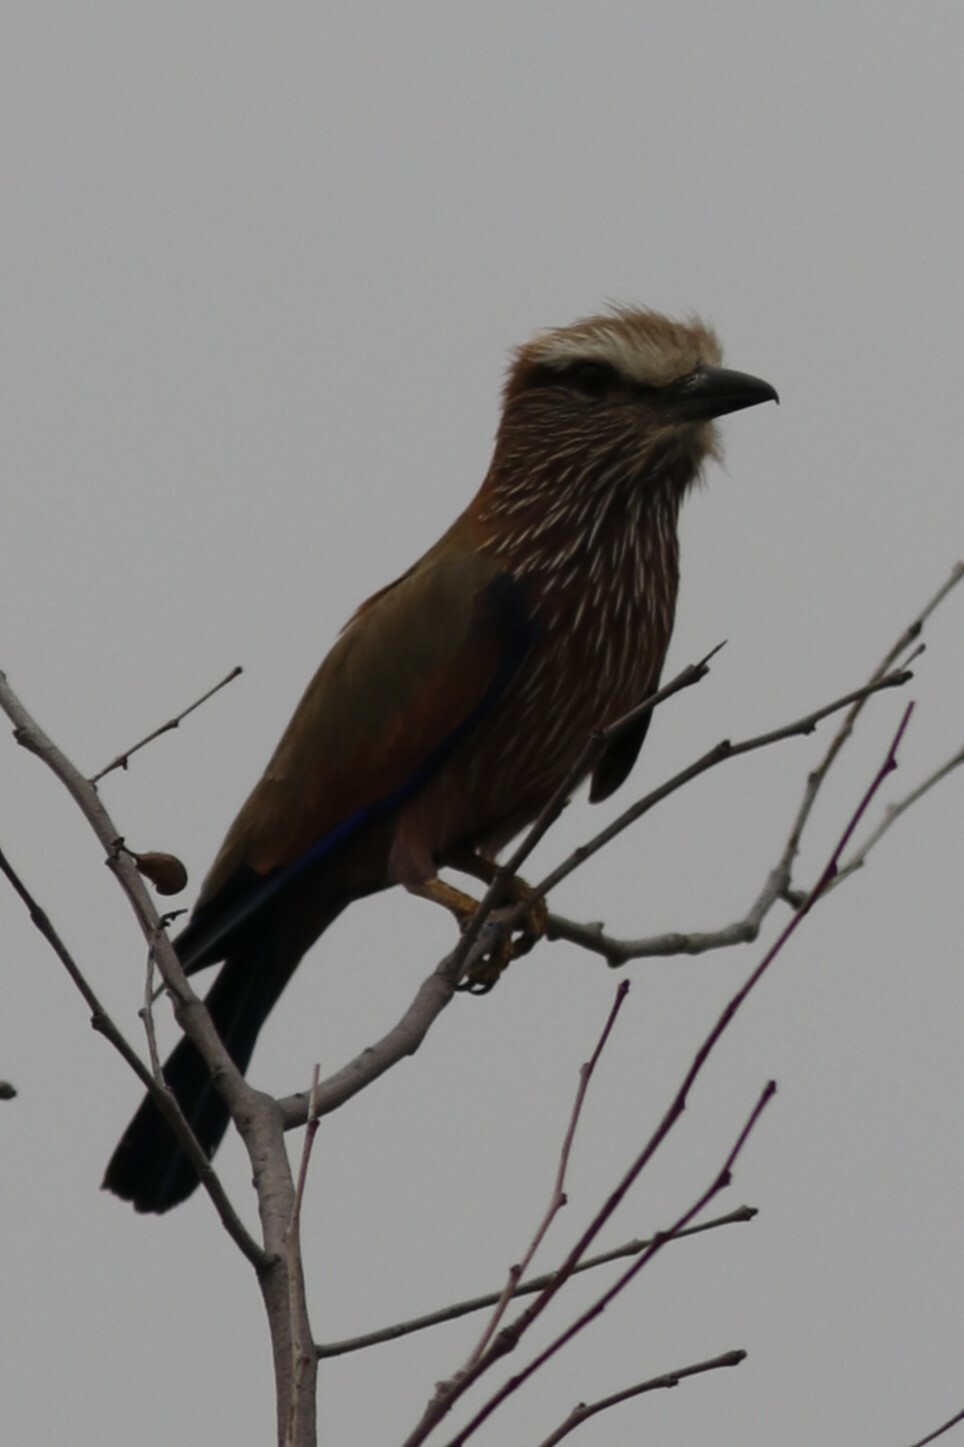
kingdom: Animalia
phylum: Chordata
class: Aves
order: Coraciiformes
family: Coraciidae
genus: Coracias
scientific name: Coracias naevius
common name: Purple roller
